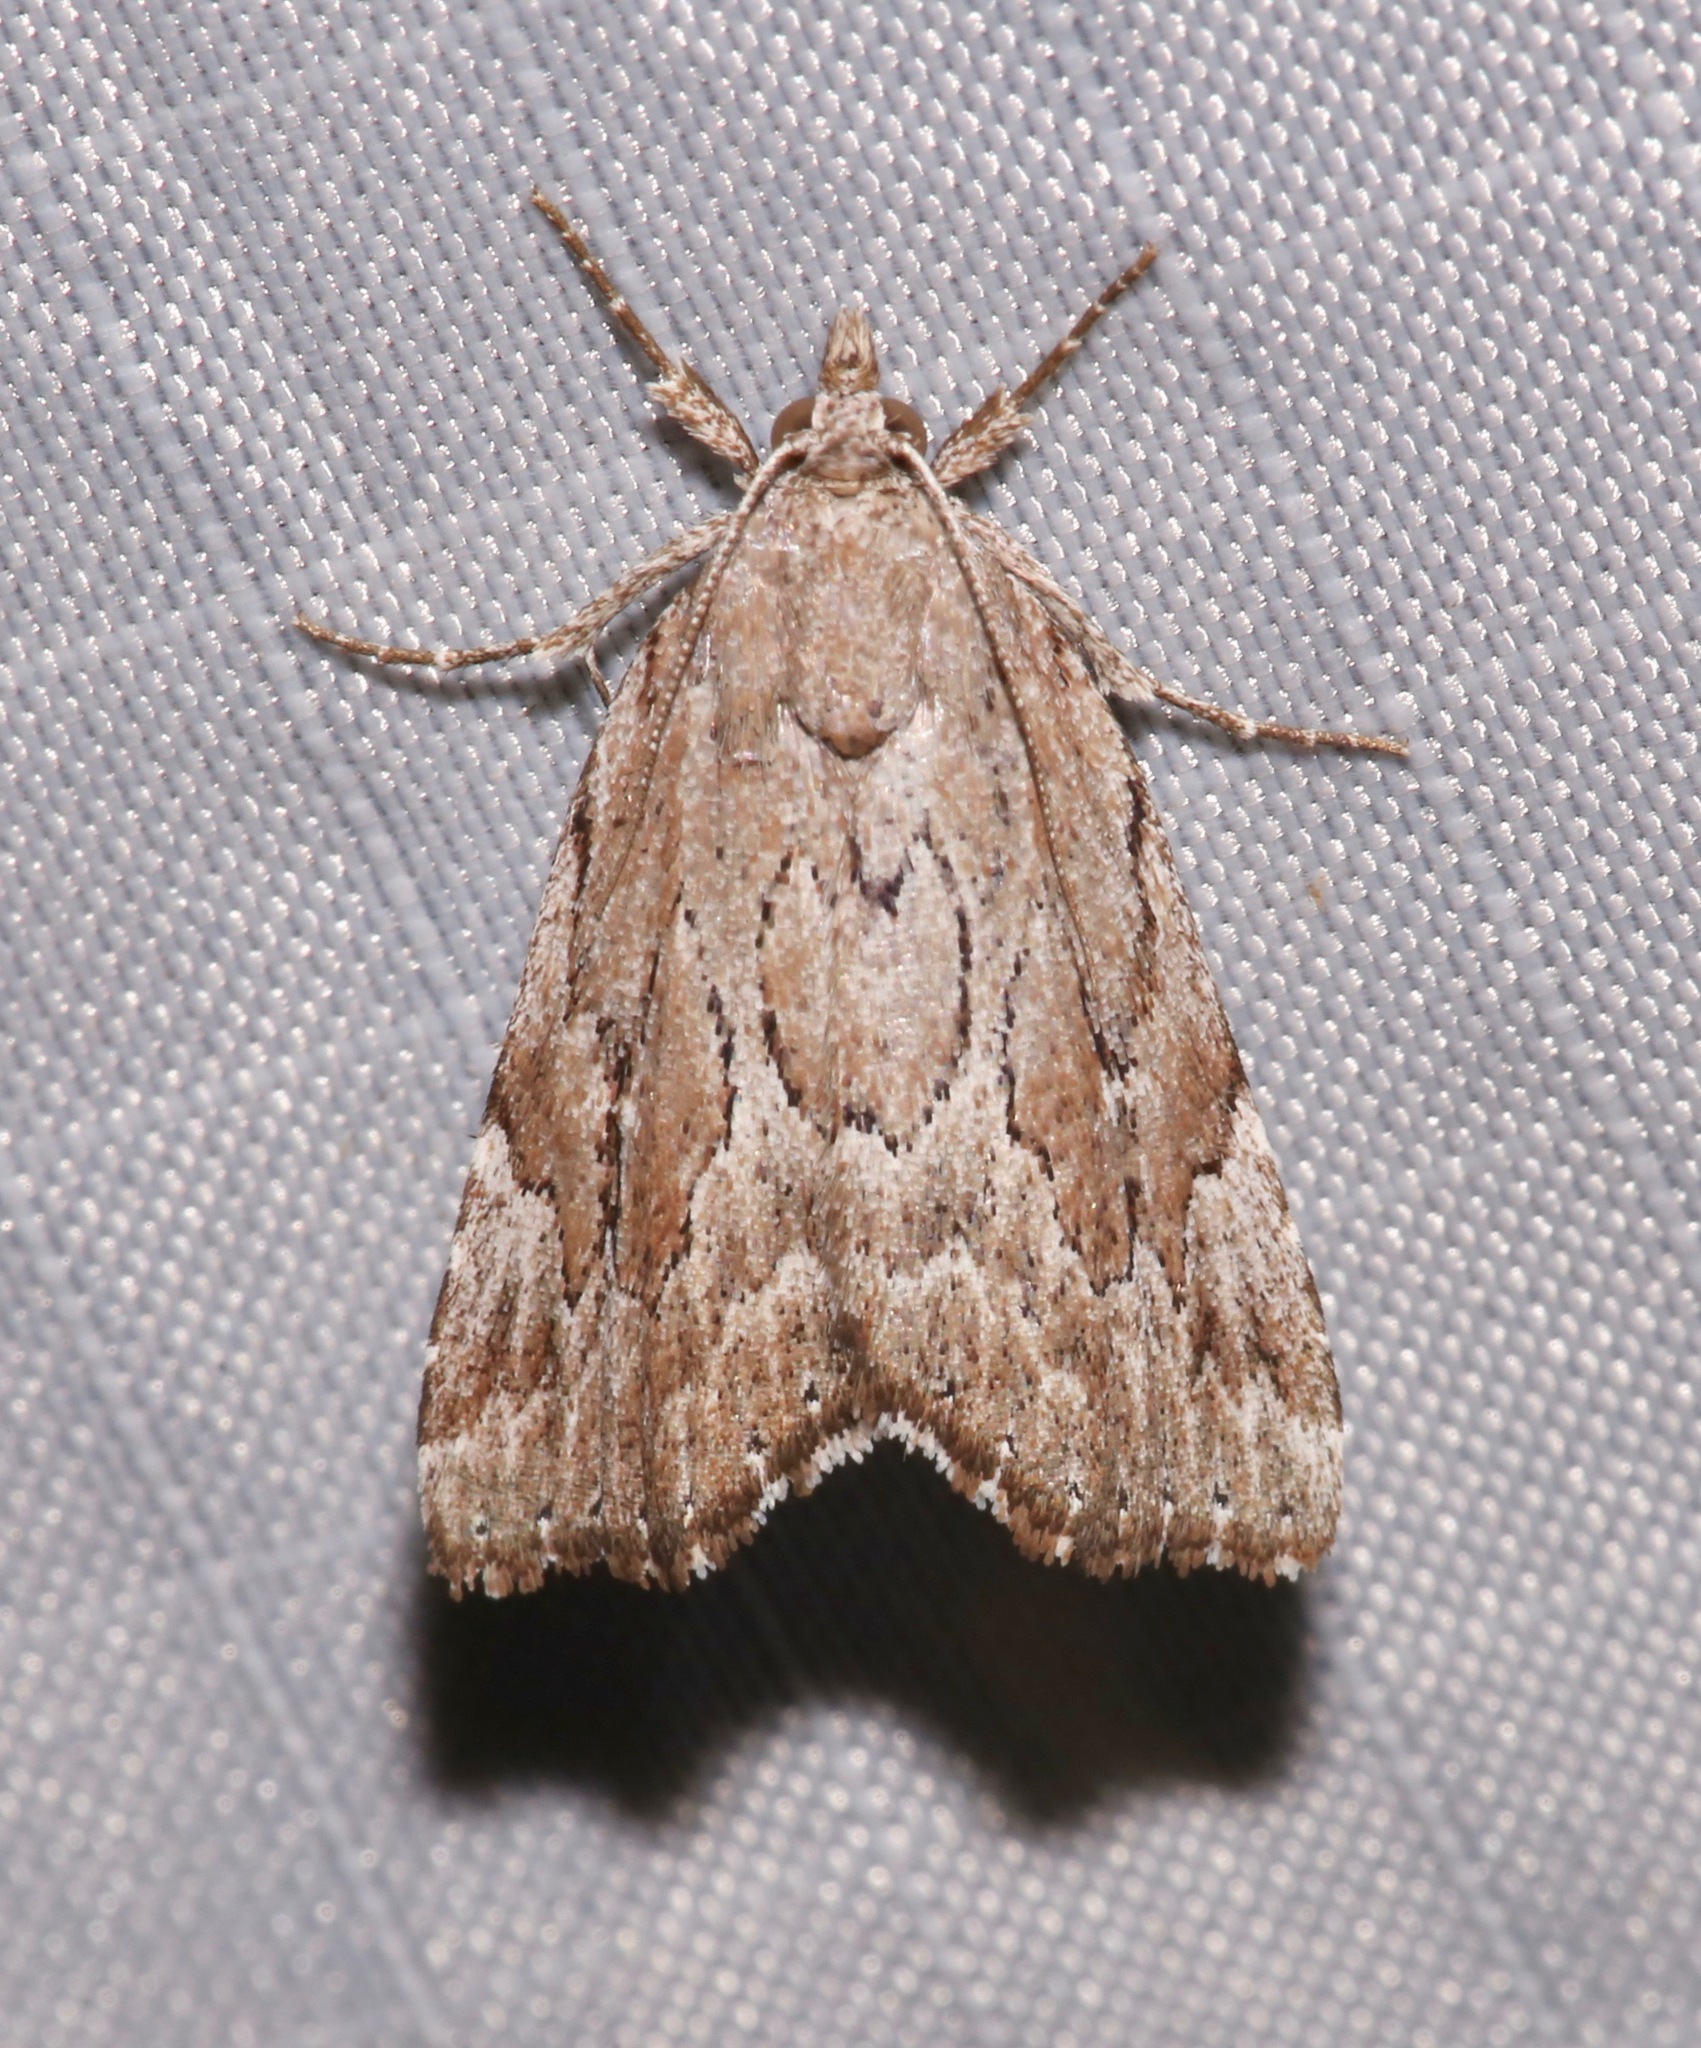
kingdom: Animalia
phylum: Arthropoda
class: Insecta
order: Lepidoptera
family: Erebidae
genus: Cutina
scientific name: Cutina albopunctella
